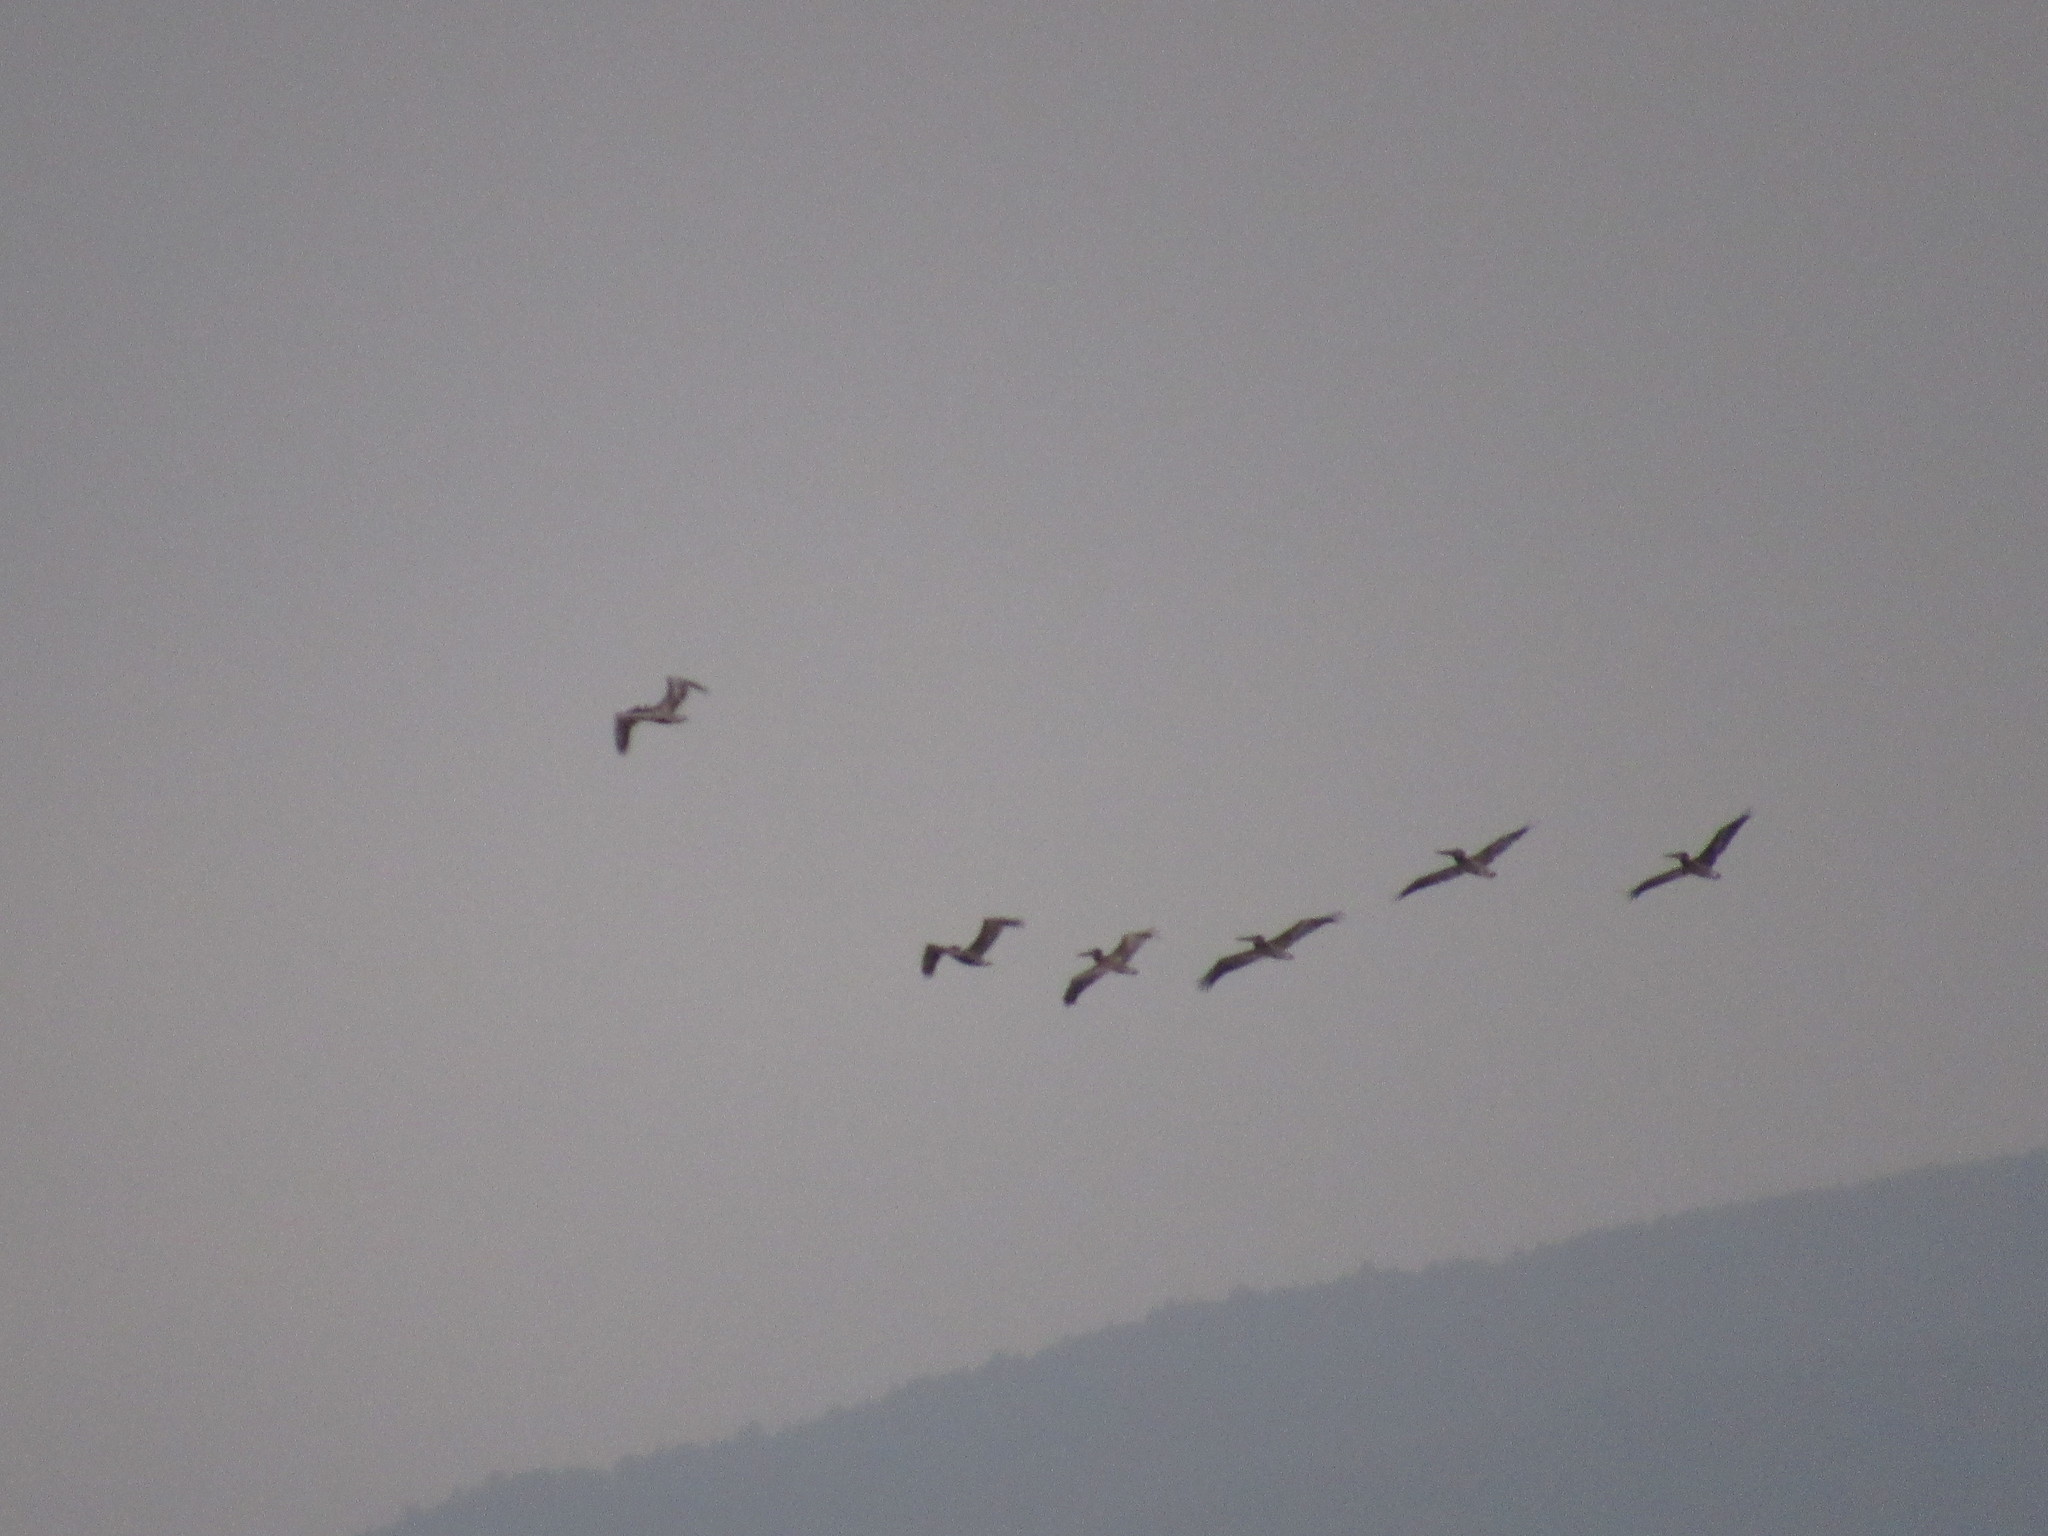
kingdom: Animalia
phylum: Chordata
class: Aves
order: Pelecaniformes
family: Pelecanidae
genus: Pelecanus
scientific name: Pelecanus occidentalis
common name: Brown pelican
